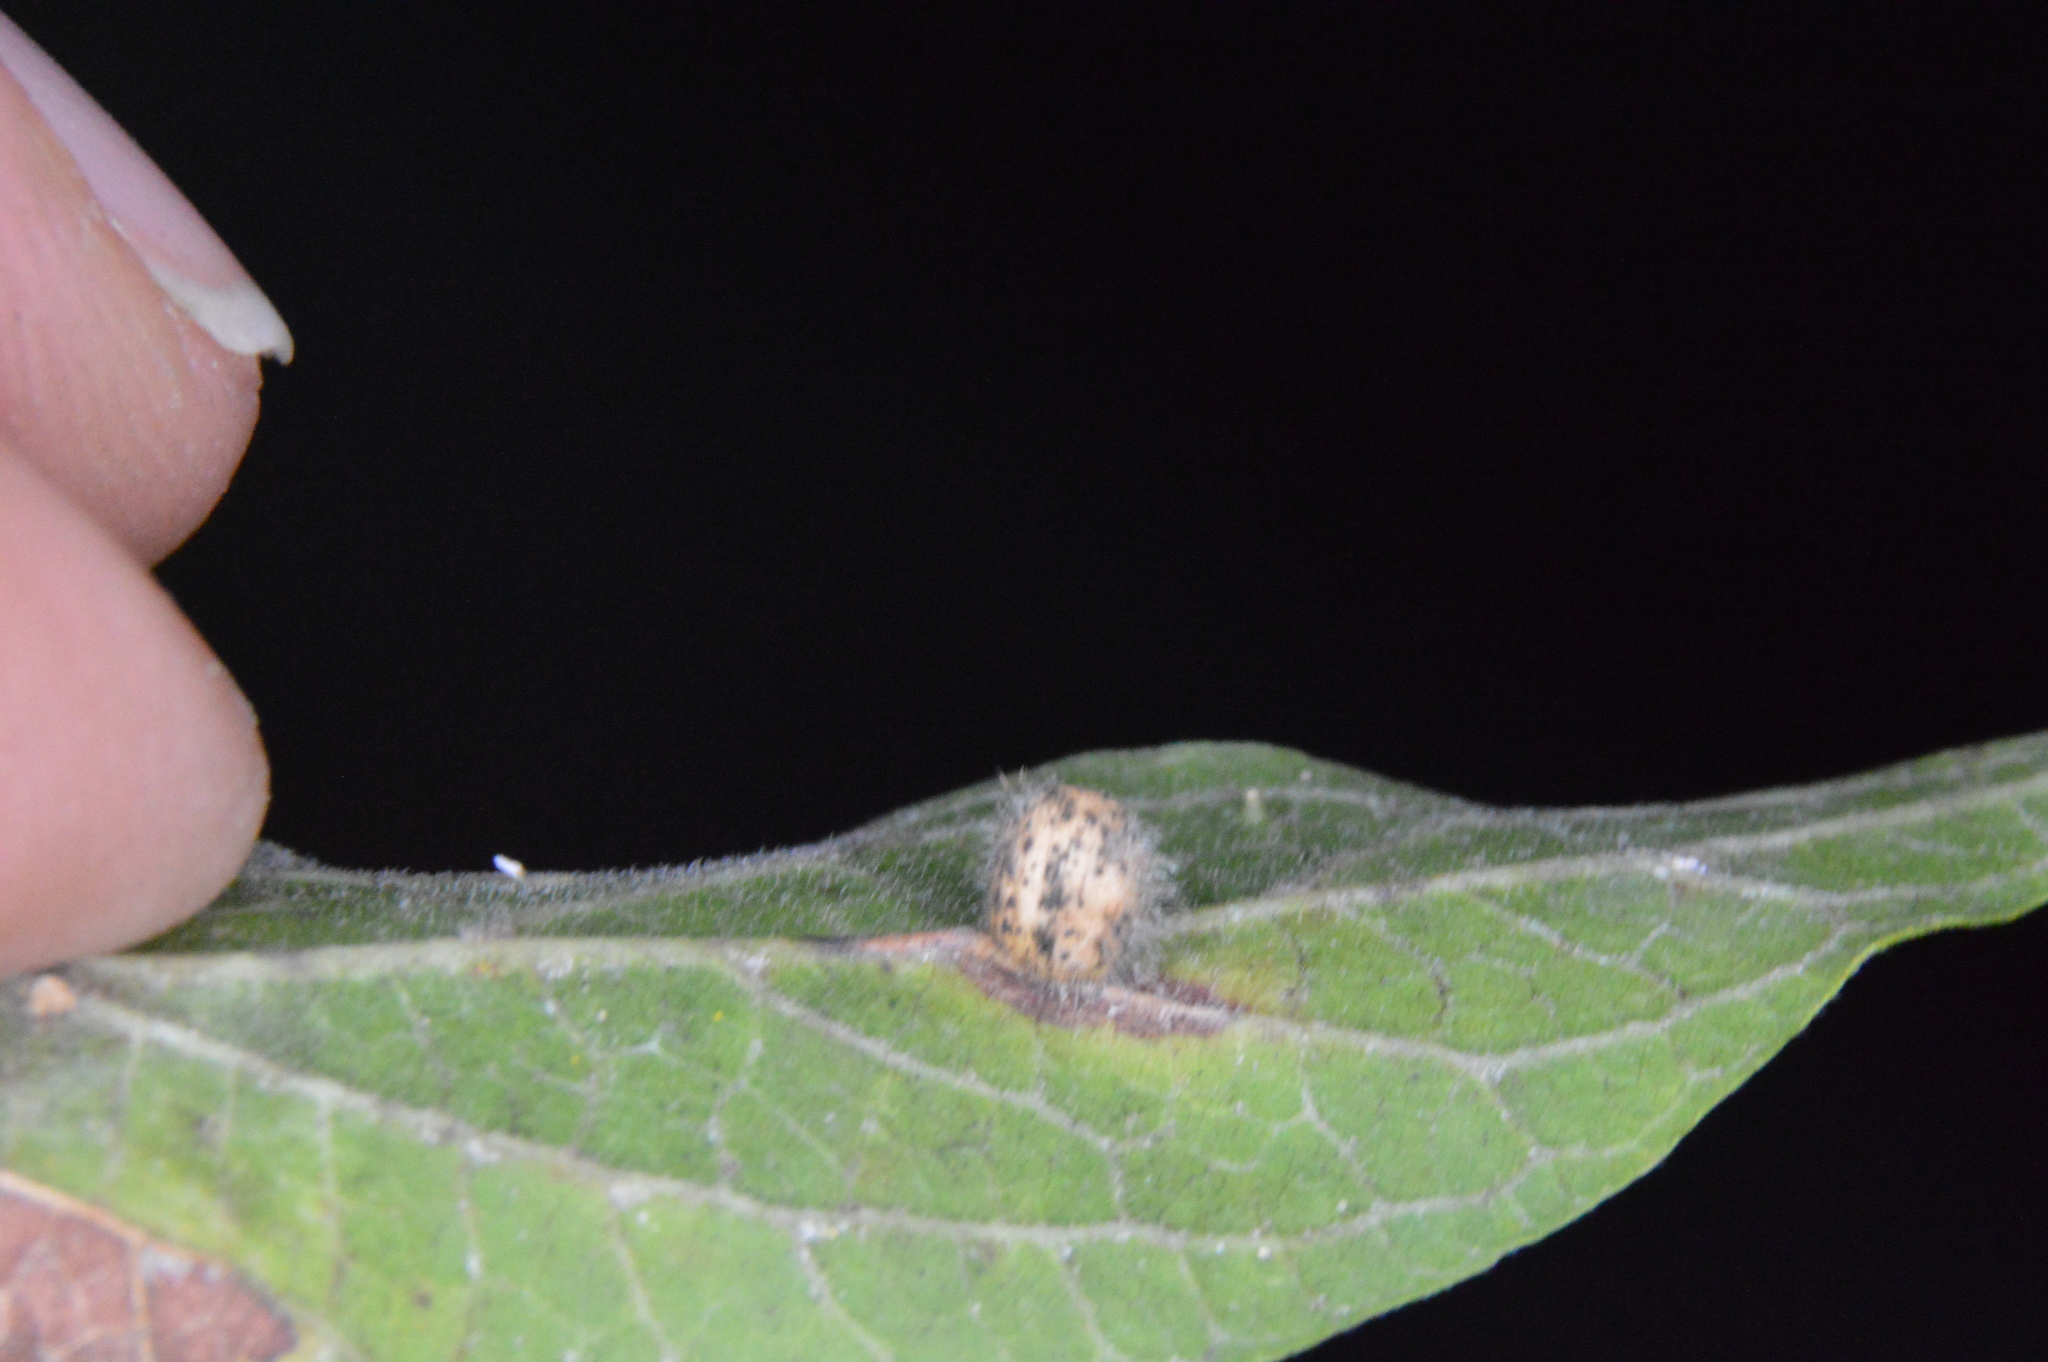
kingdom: Animalia
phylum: Arthropoda
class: Insecta
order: Diptera
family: Cecidomyiidae
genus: Celticecis
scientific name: Celticecis pubescens
